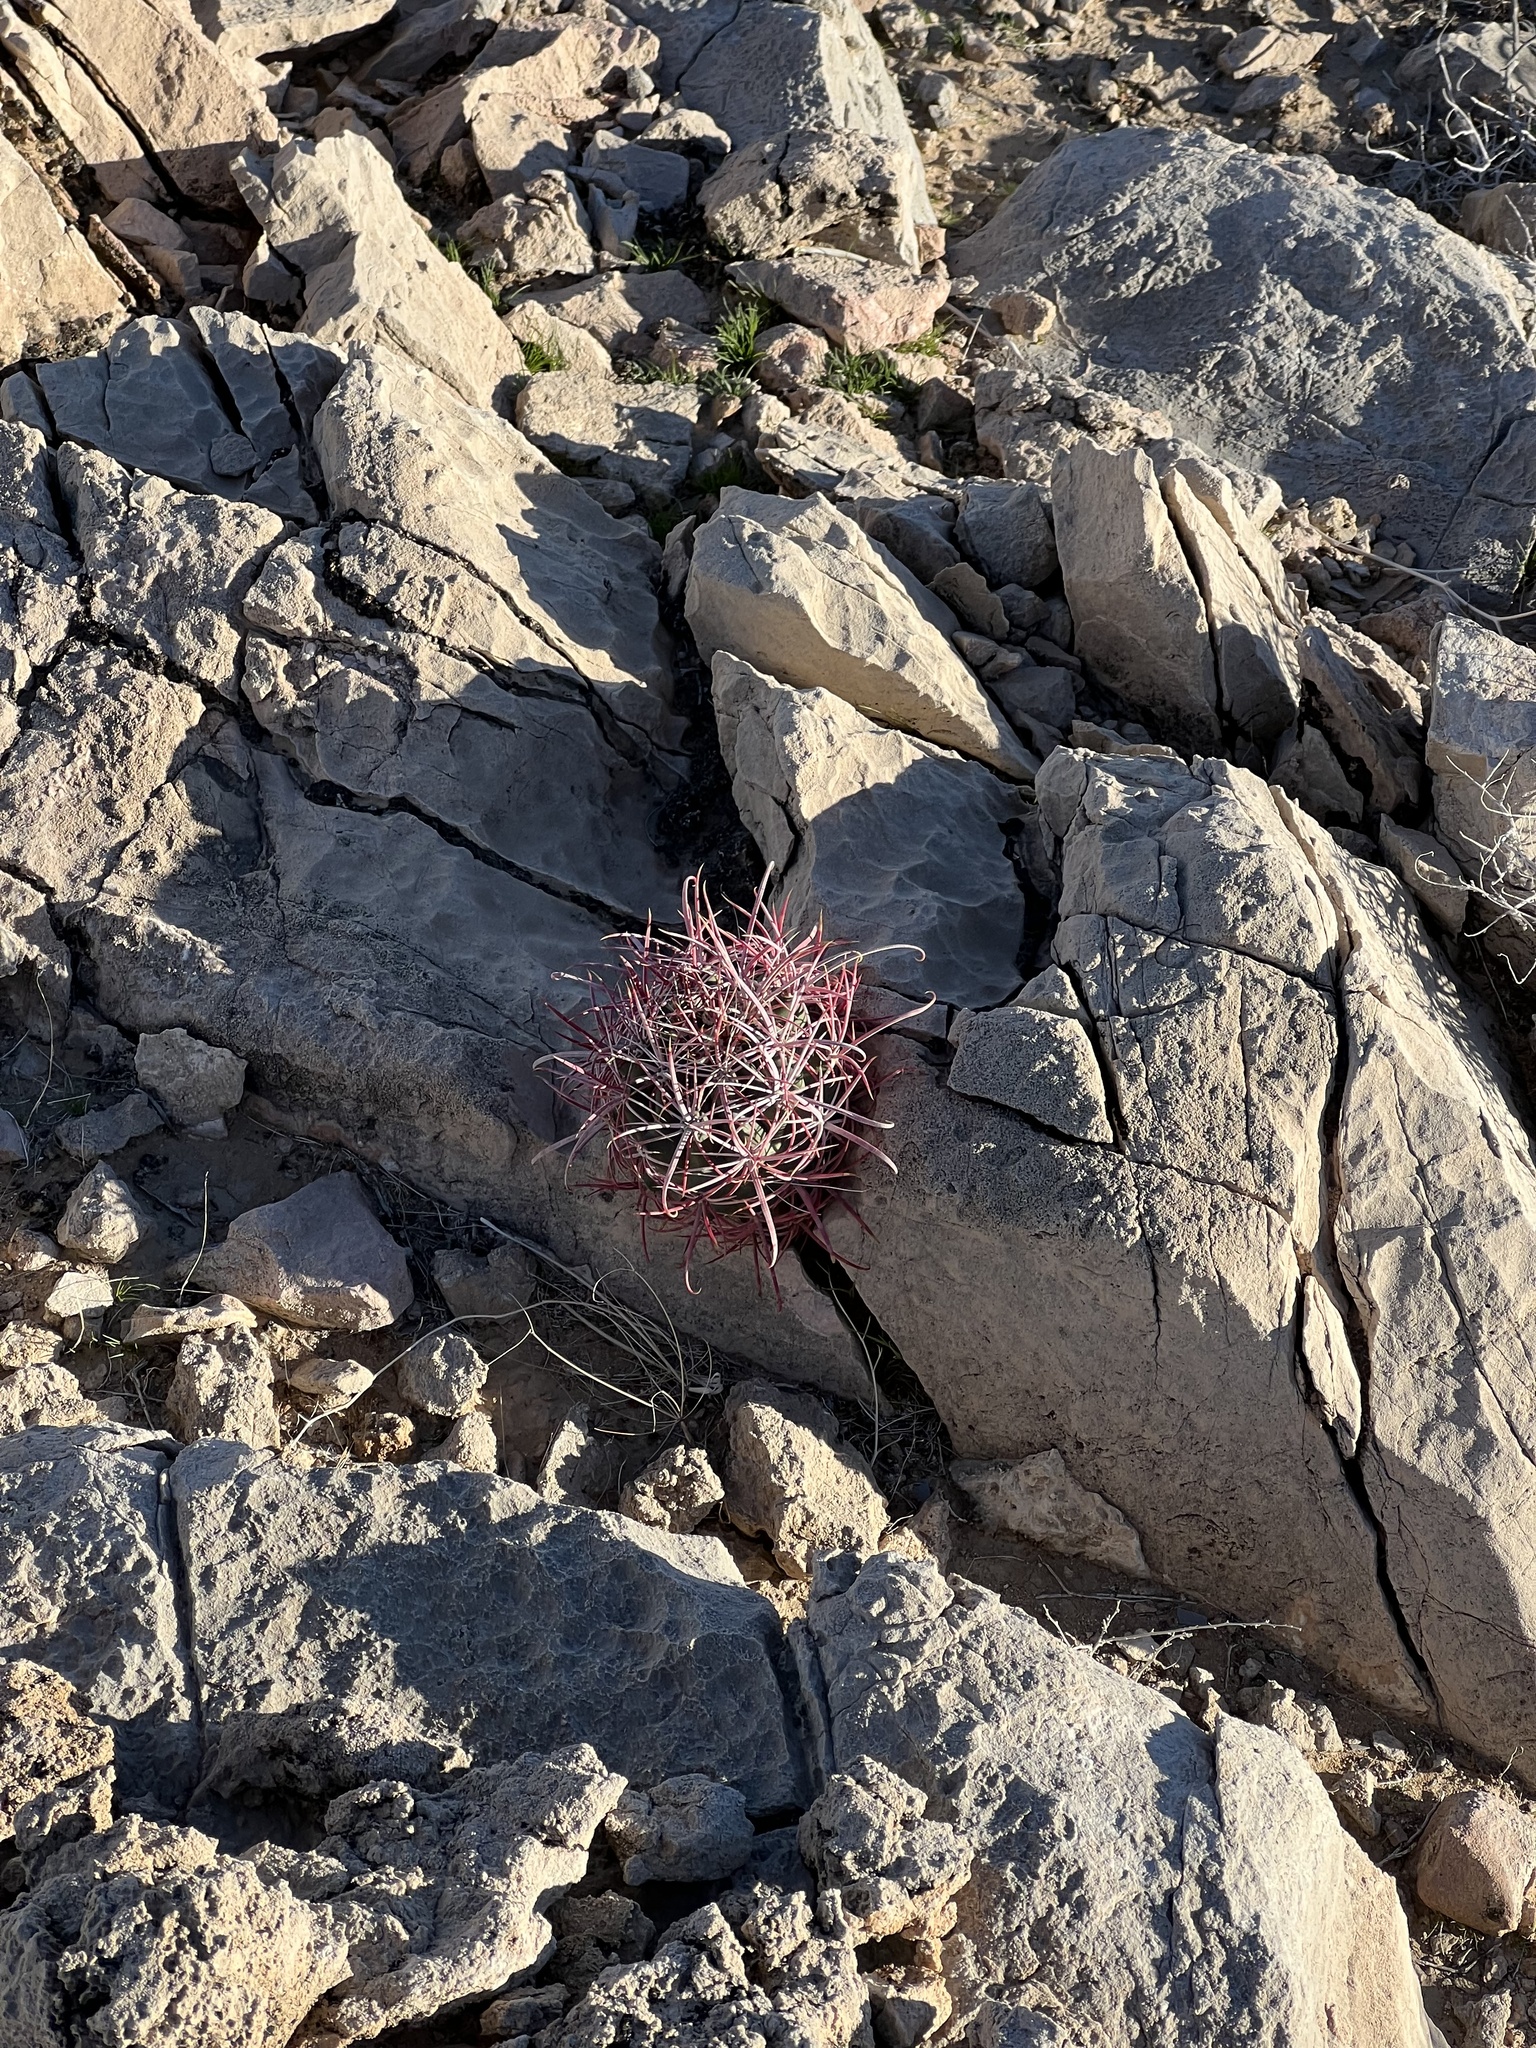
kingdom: Plantae
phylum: Tracheophyta
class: Magnoliopsida
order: Caryophyllales
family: Cactaceae
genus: Ferocactus
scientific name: Ferocactus cylindraceus
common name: California barrel cactus
